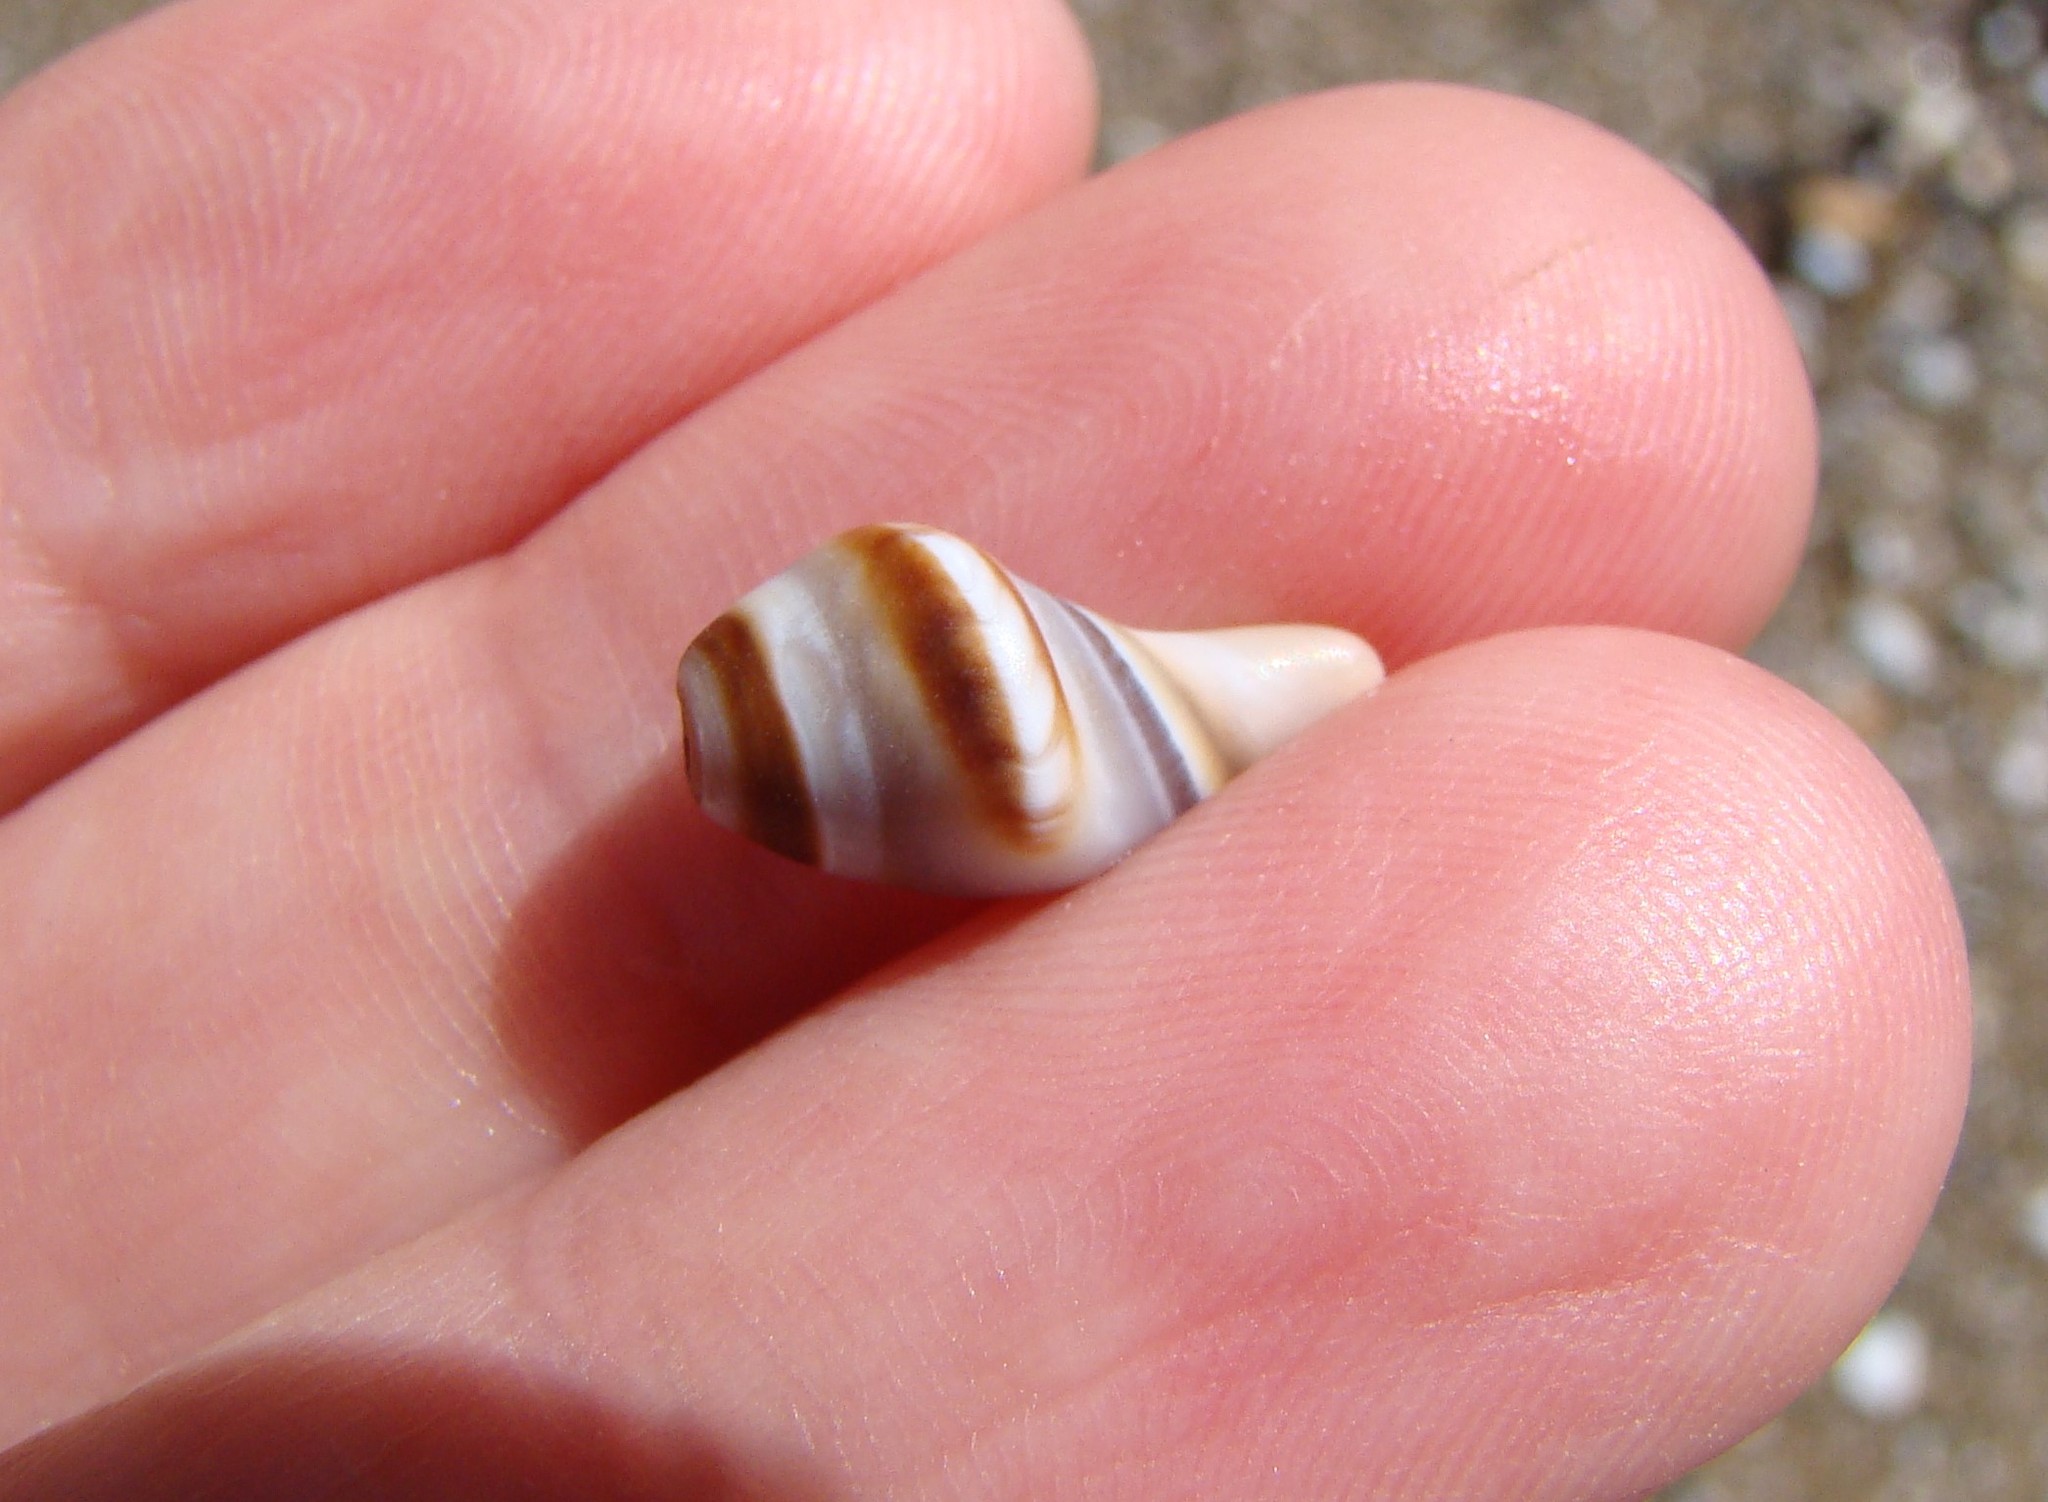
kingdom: Animalia
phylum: Mollusca
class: Gastropoda
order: Neogastropoda
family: Ancillariidae
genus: Amalda
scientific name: Amalda australis
